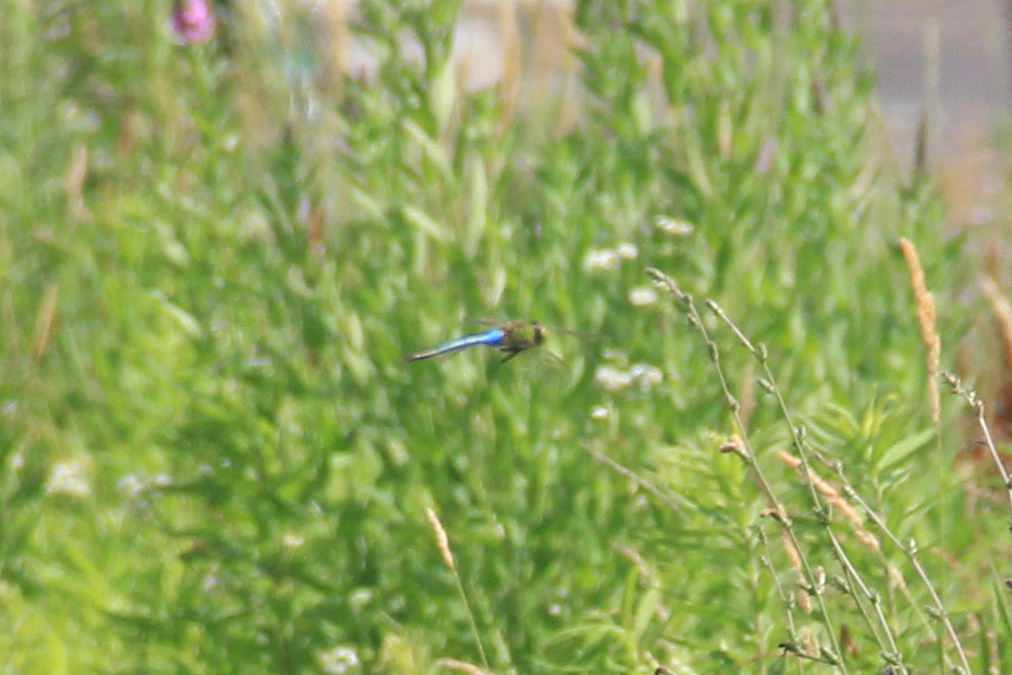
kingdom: Animalia
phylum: Arthropoda
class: Insecta
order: Odonata
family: Aeshnidae
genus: Anax
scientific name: Anax junius
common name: Common green darner
